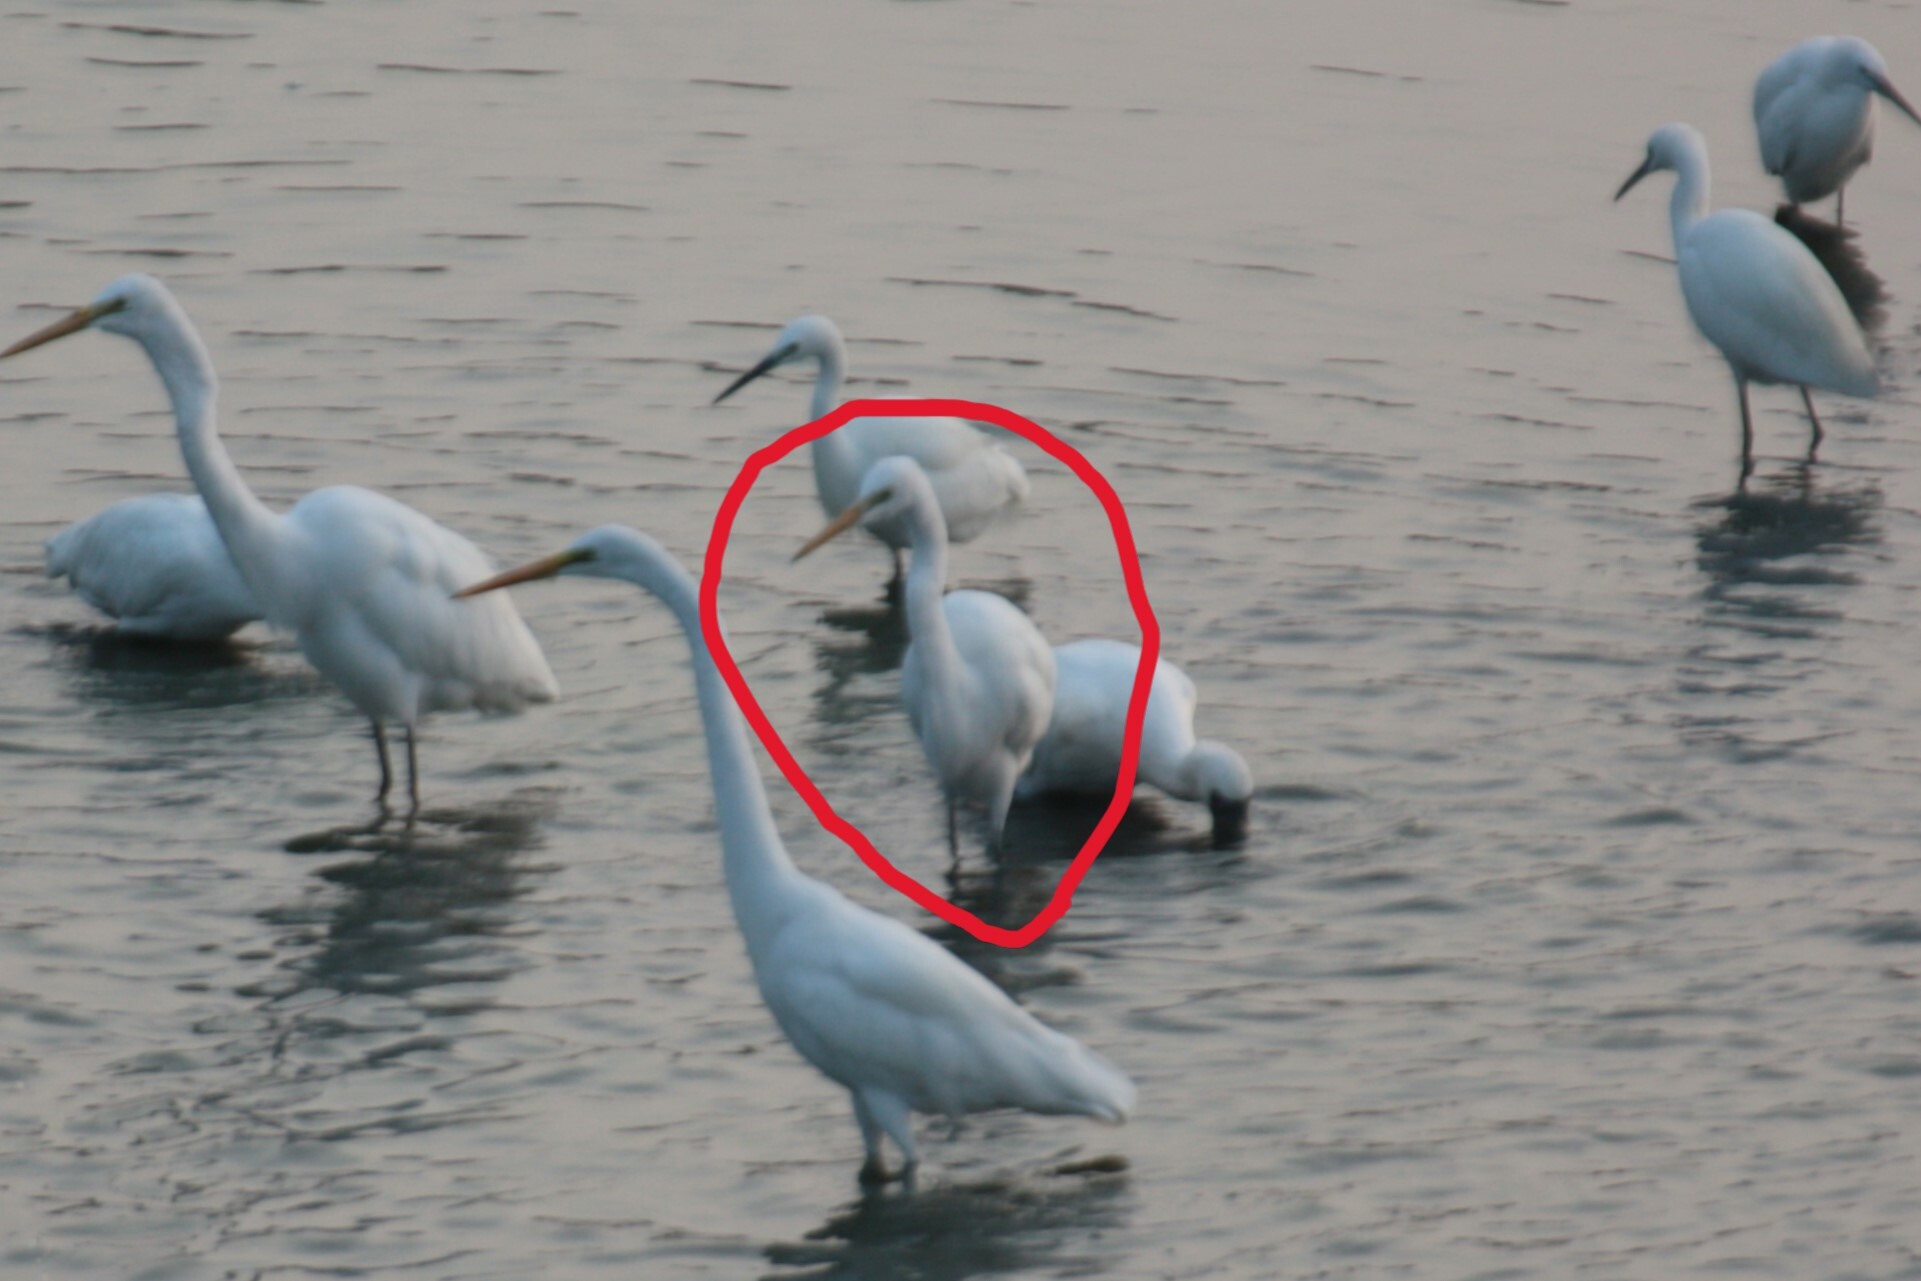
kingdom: Animalia
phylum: Chordata
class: Aves
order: Pelecaniformes
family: Ardeidae
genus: Ardea
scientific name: Ardea alba
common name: Great egret
